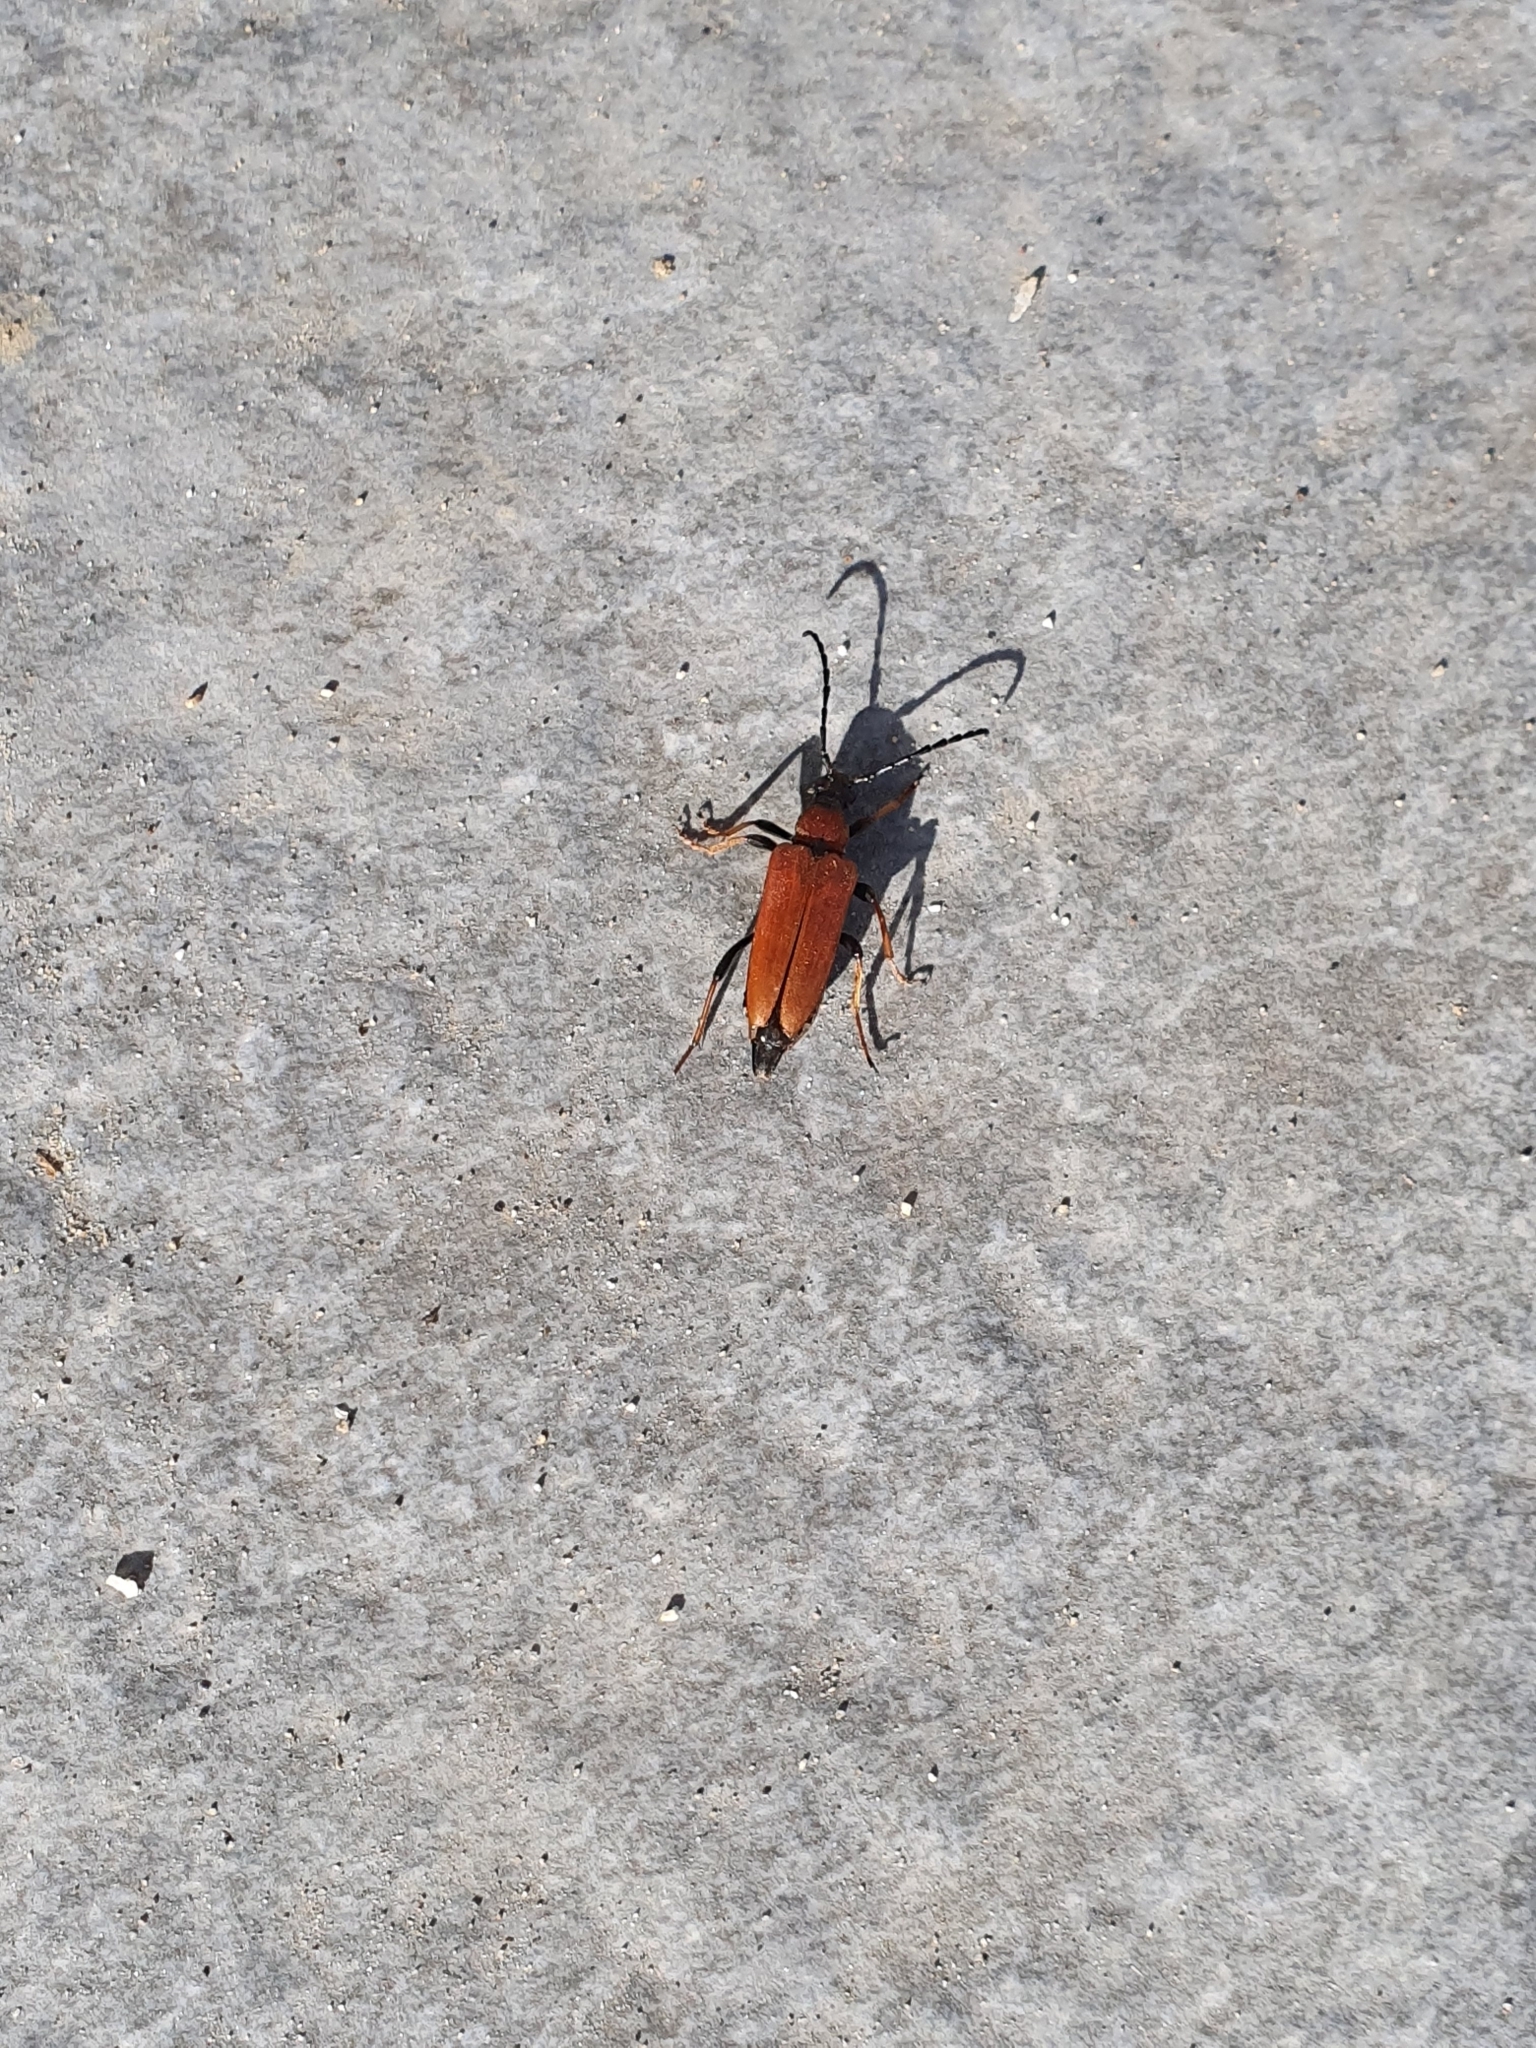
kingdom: Animalia
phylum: Arthropoda
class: Insecta
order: Coleoptera
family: Cerambycidae
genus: Stictoleptura
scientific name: Stictoleptura rubra
